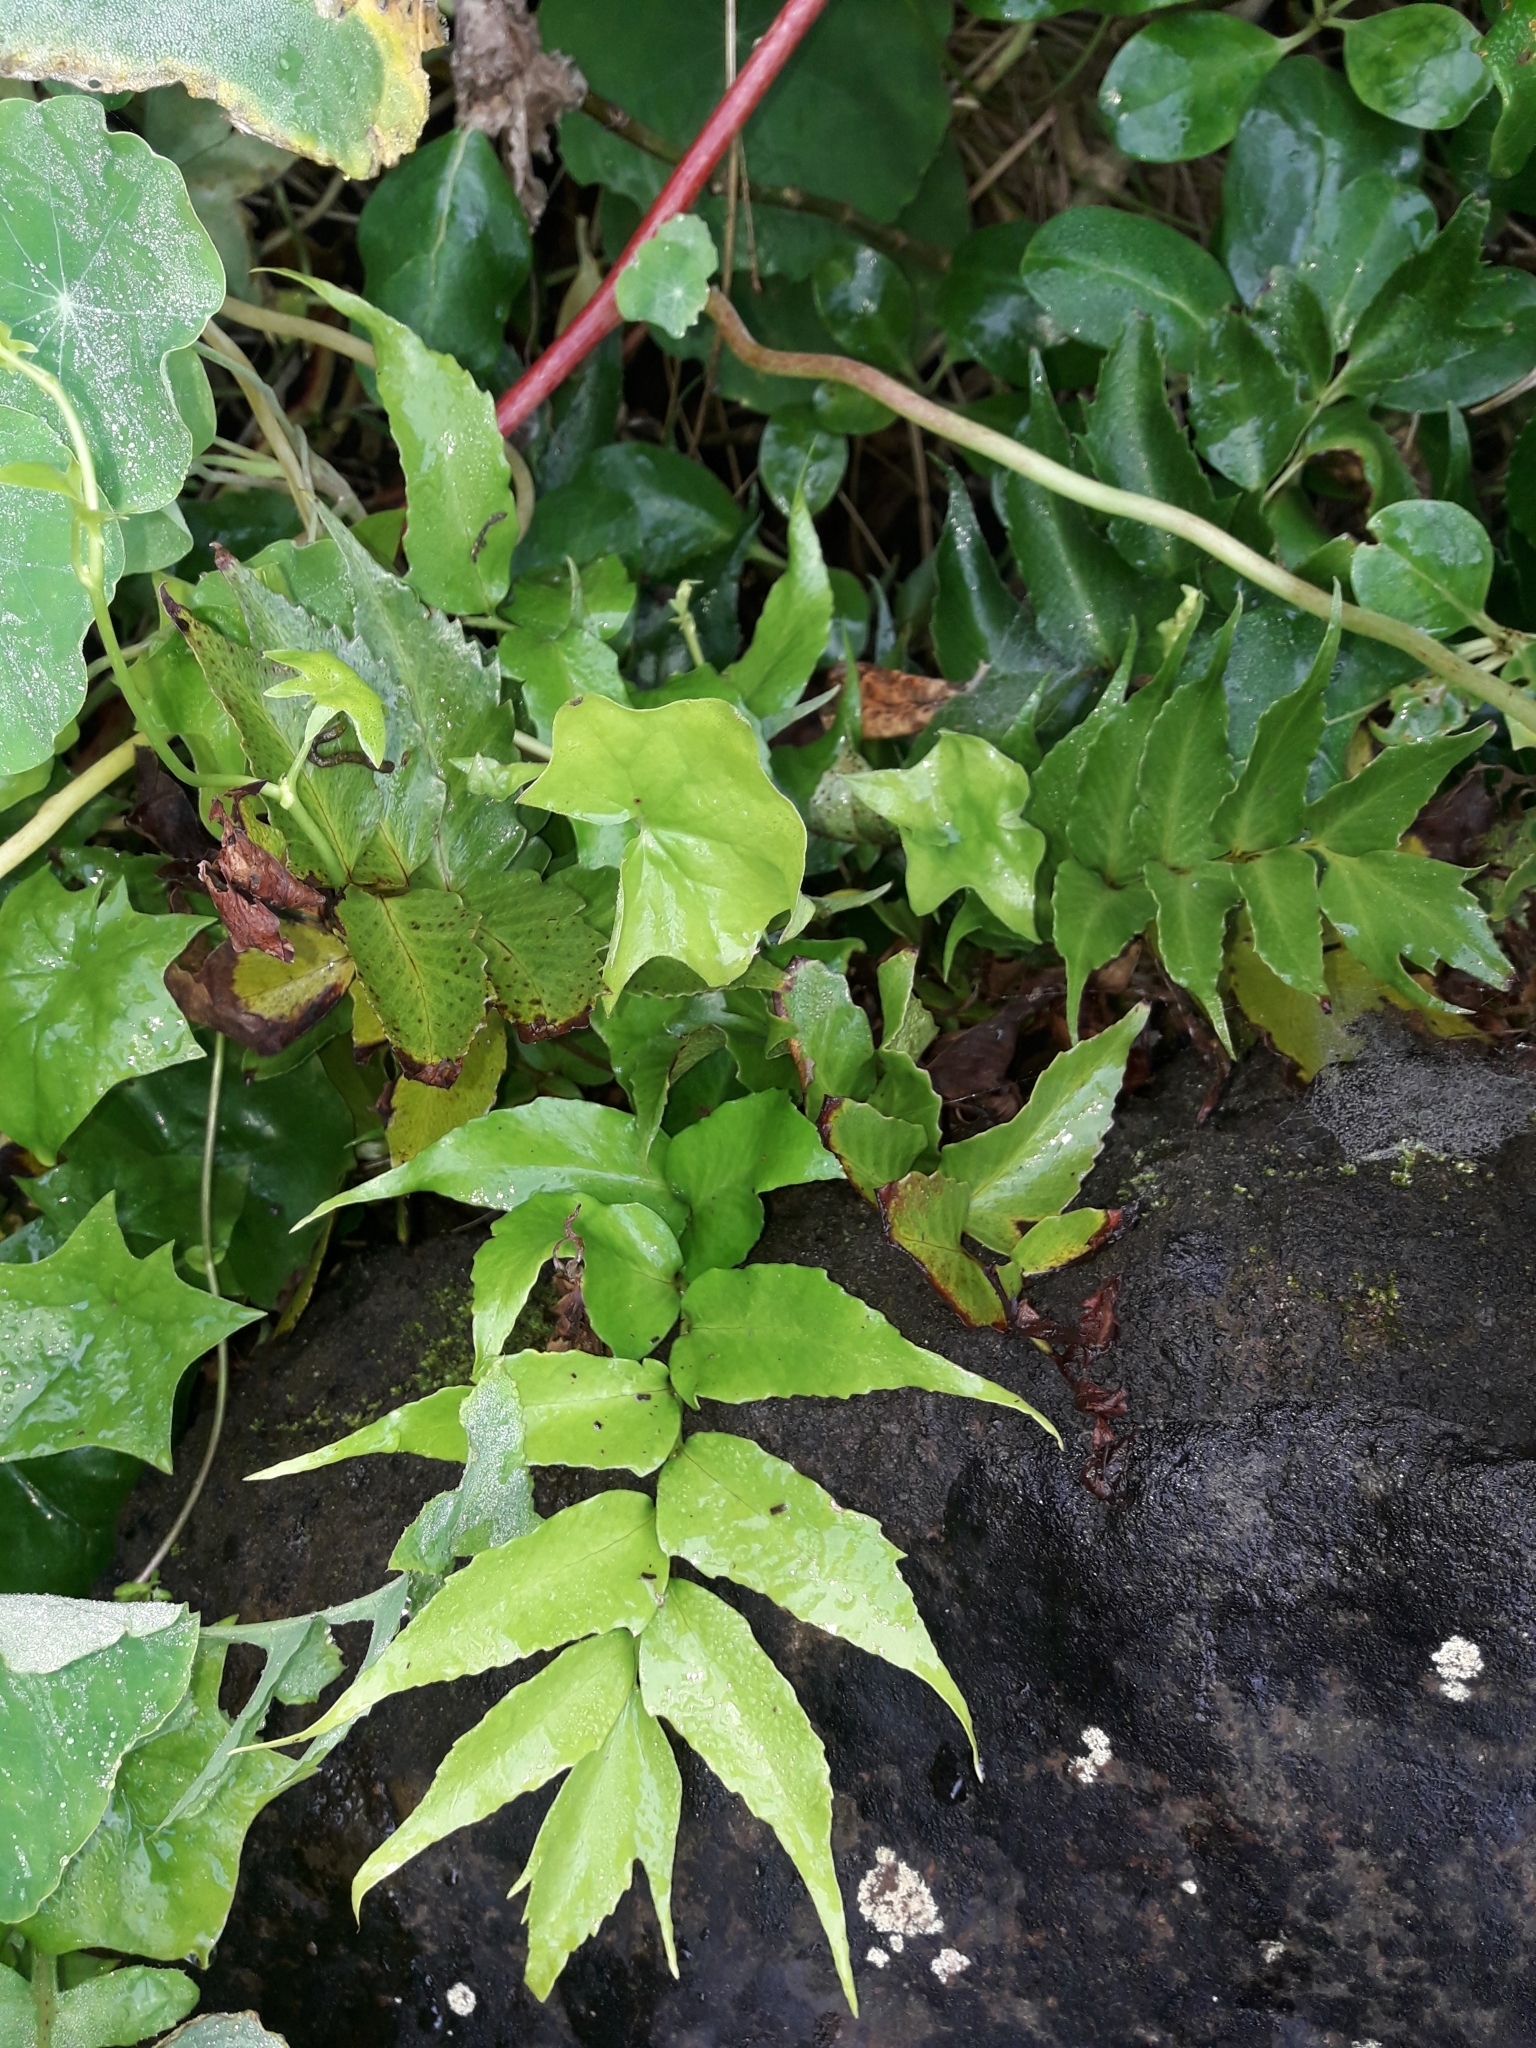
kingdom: Plantae
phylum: Tracheophyta
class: Polypodiopsida
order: Polypodiales
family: Dryopteridaceae
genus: Cyrtomium
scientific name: Cyrtomium falcatum
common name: House holly-fern
